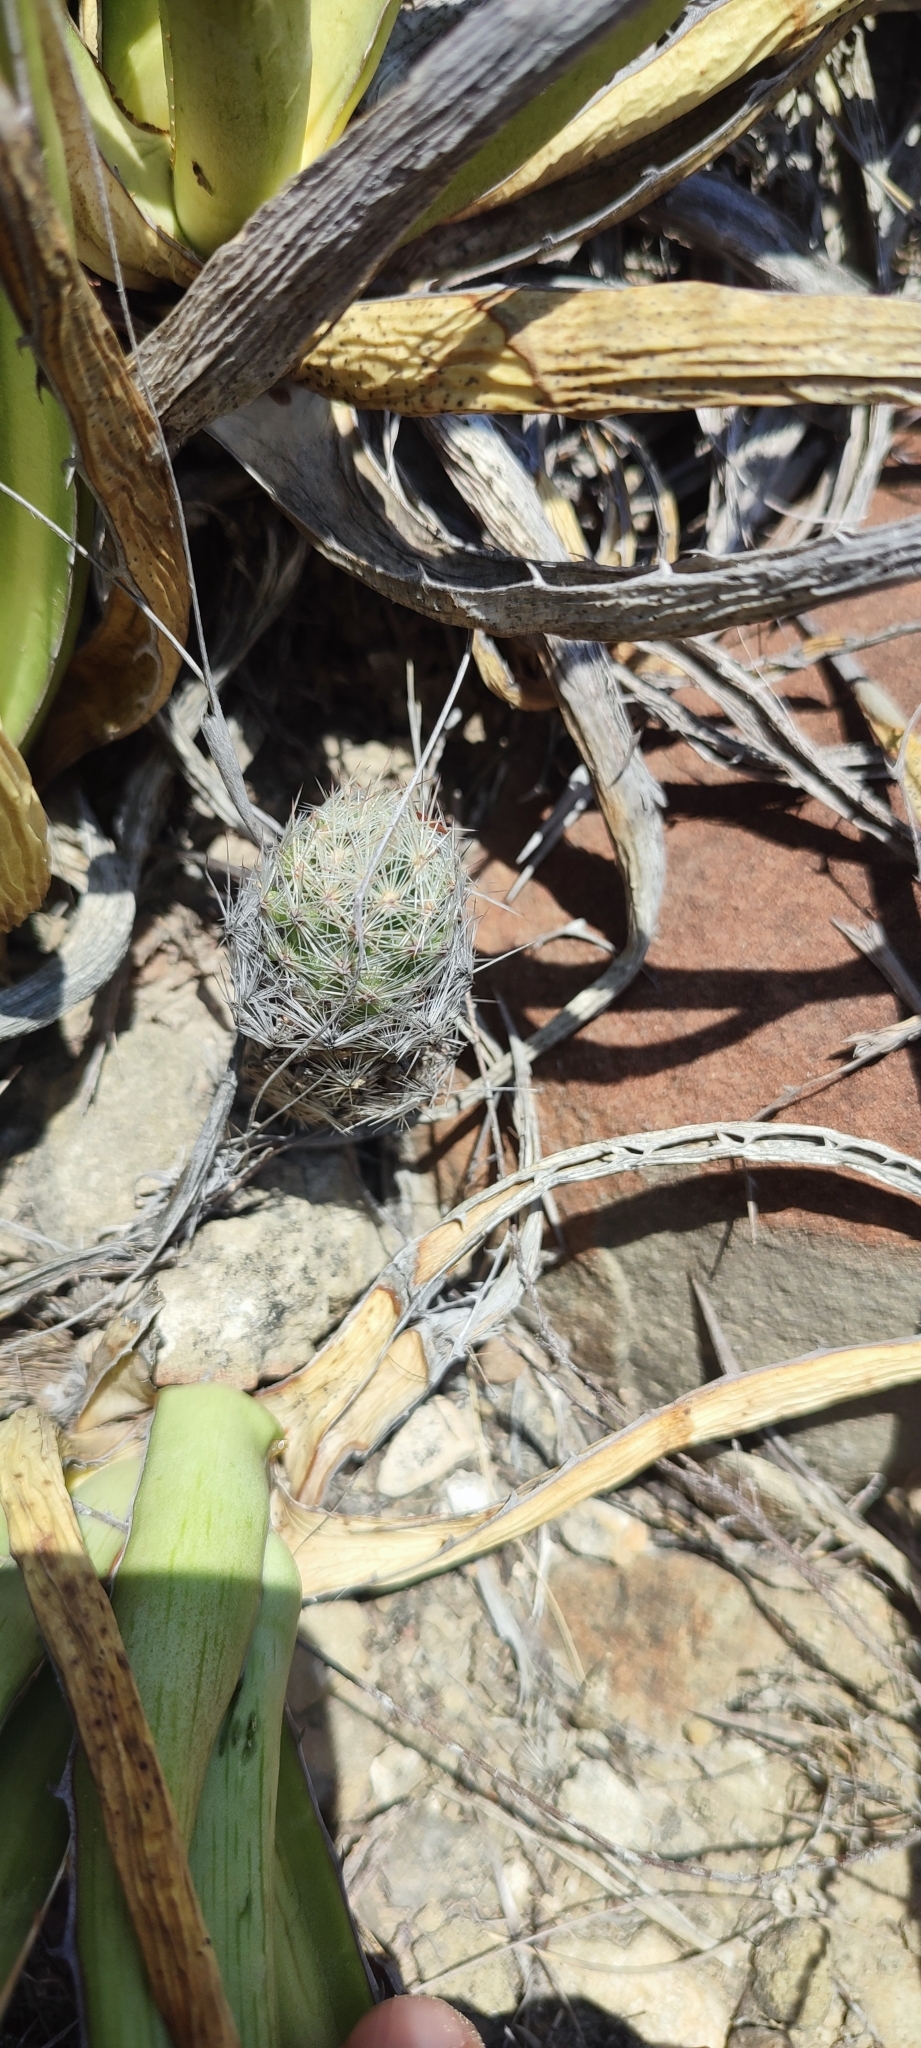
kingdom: Plantae
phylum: Tracheophyta
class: Magnoliopsida
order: Caryophyllales
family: Cactaceae
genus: Pelecyphora
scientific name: Pelecyphora tuberculosa
